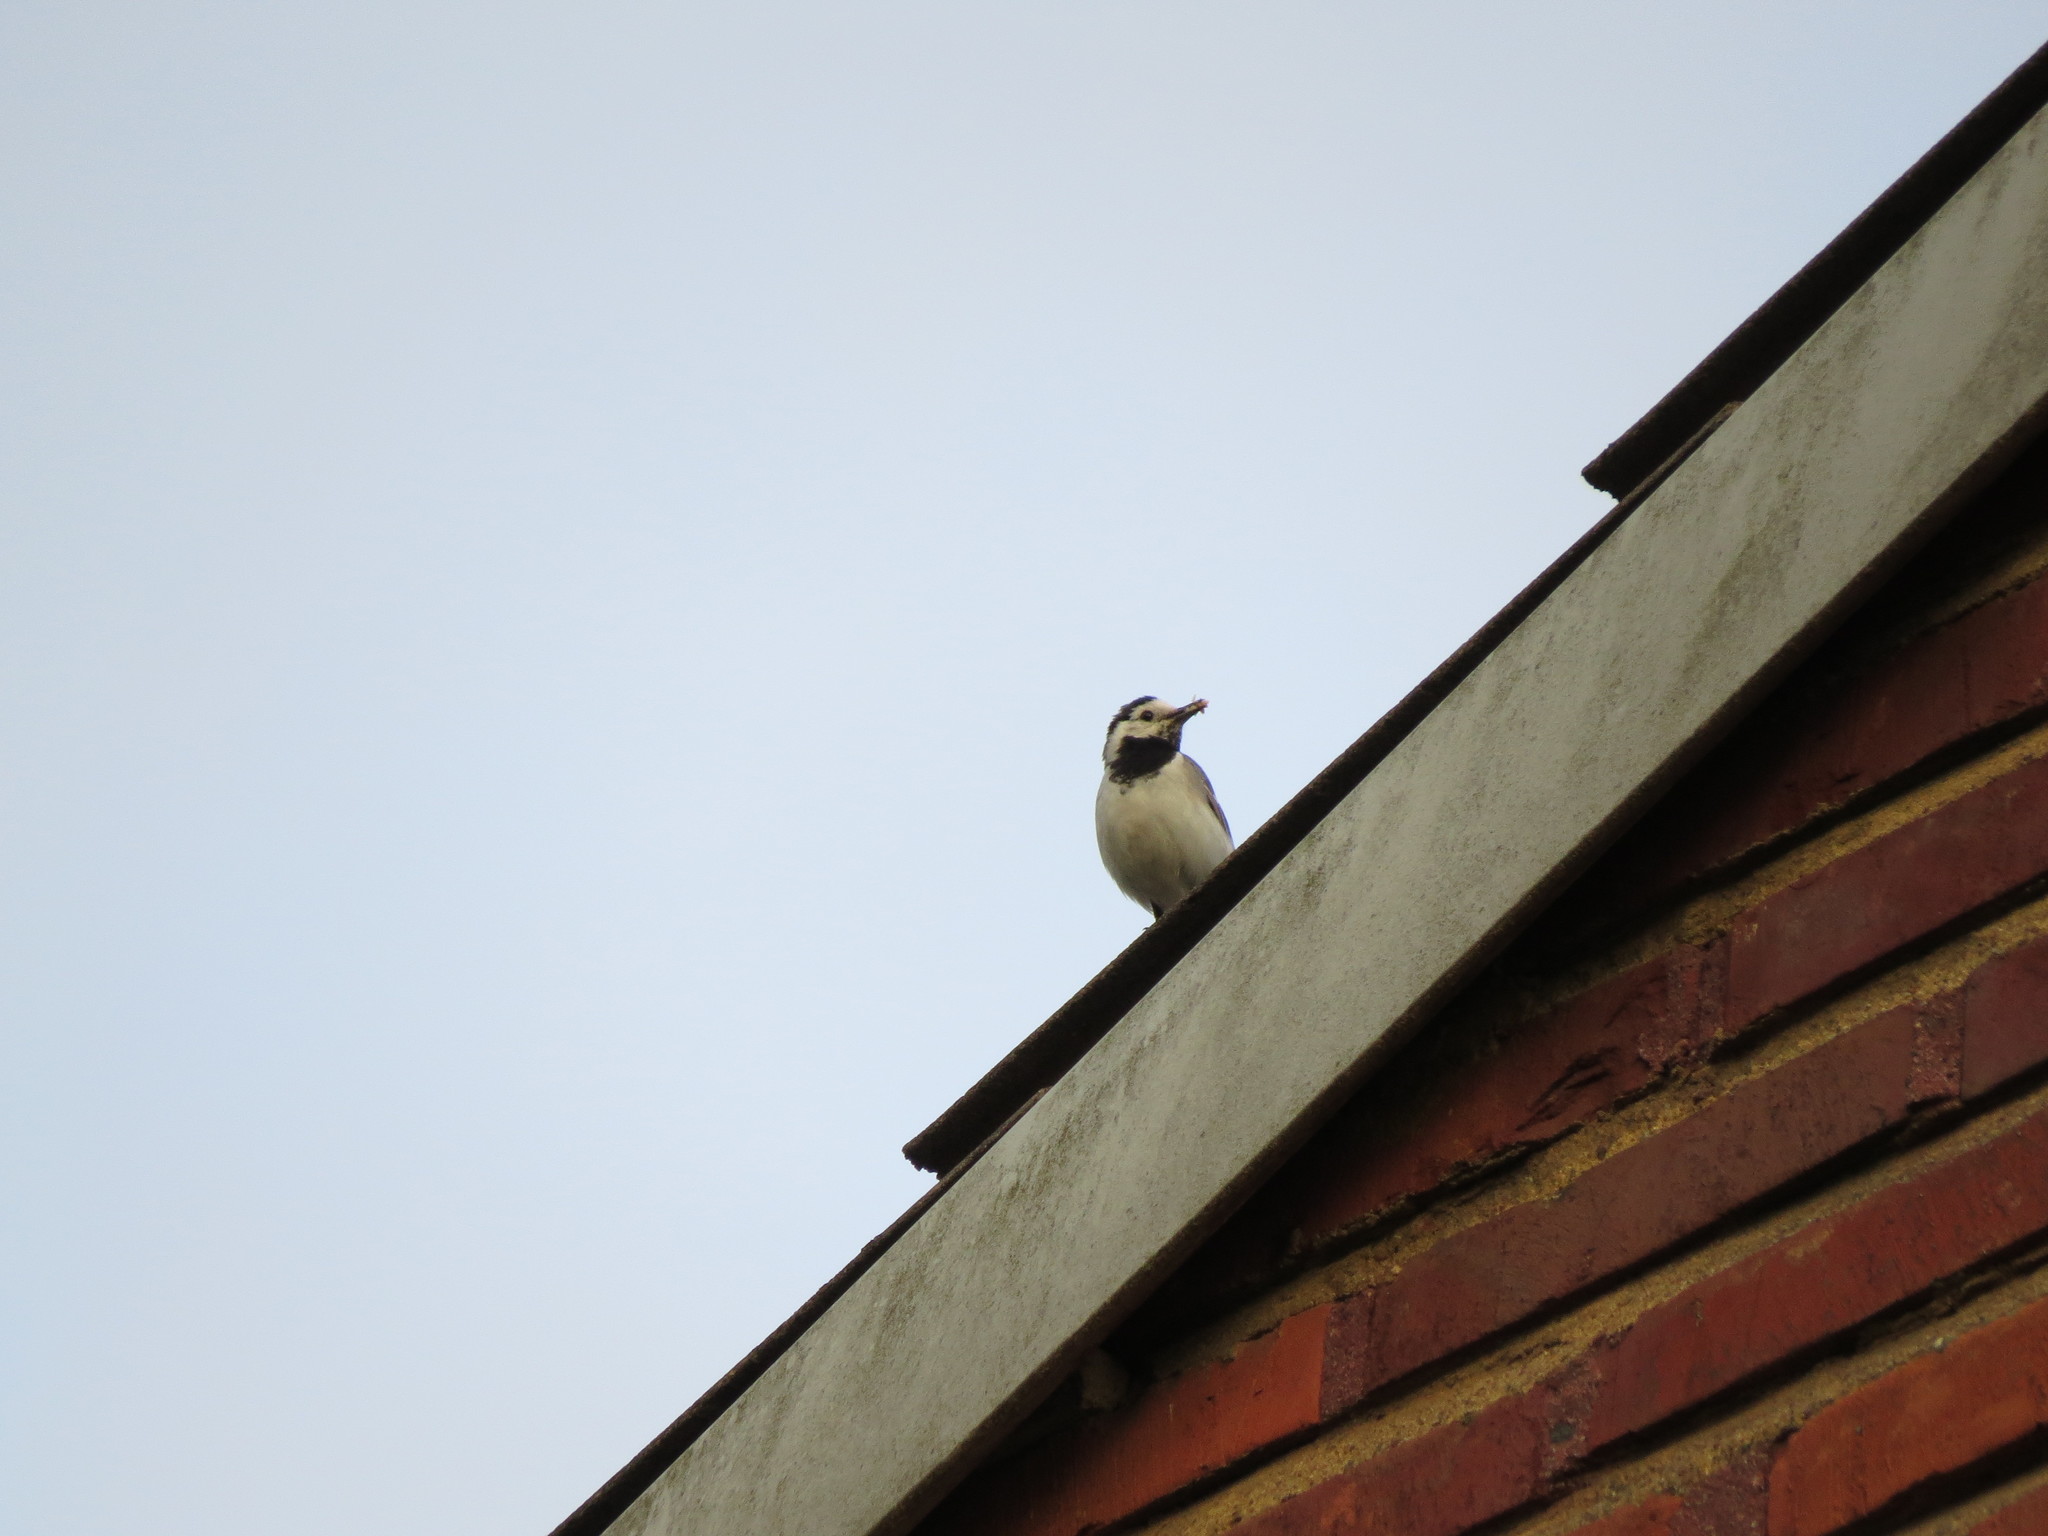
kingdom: Animalia
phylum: Chordata
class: Aves
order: Passeriformes
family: Motacillidae
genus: Motacilla
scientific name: Motacilla alba
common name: White wagtail
